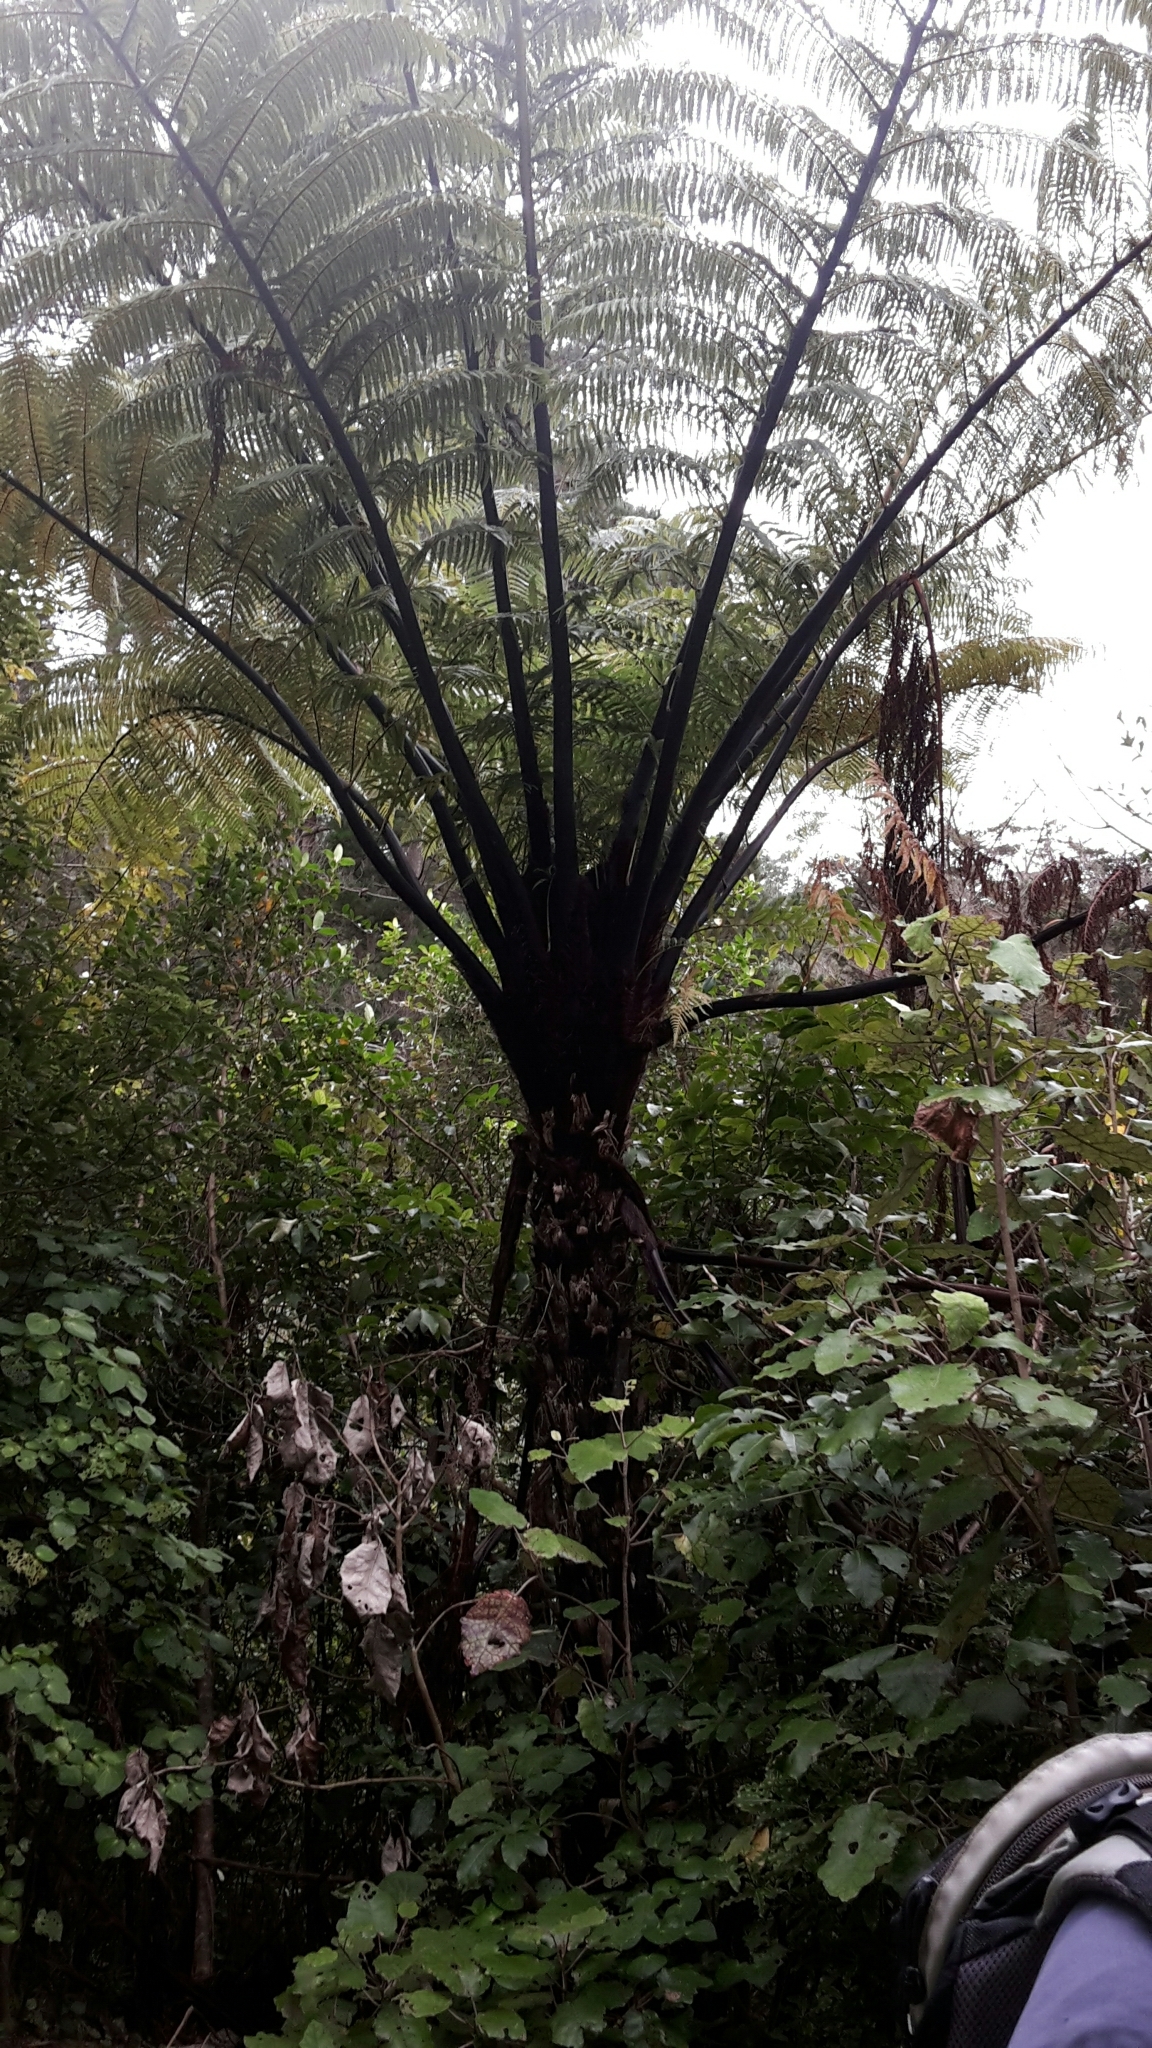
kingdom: Plantae
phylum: Tracheophyta
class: Polypodiopsida
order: Cyatheales
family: Cyatheaceae
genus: Sphaeropteris
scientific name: Sphaeropteris medullaris
